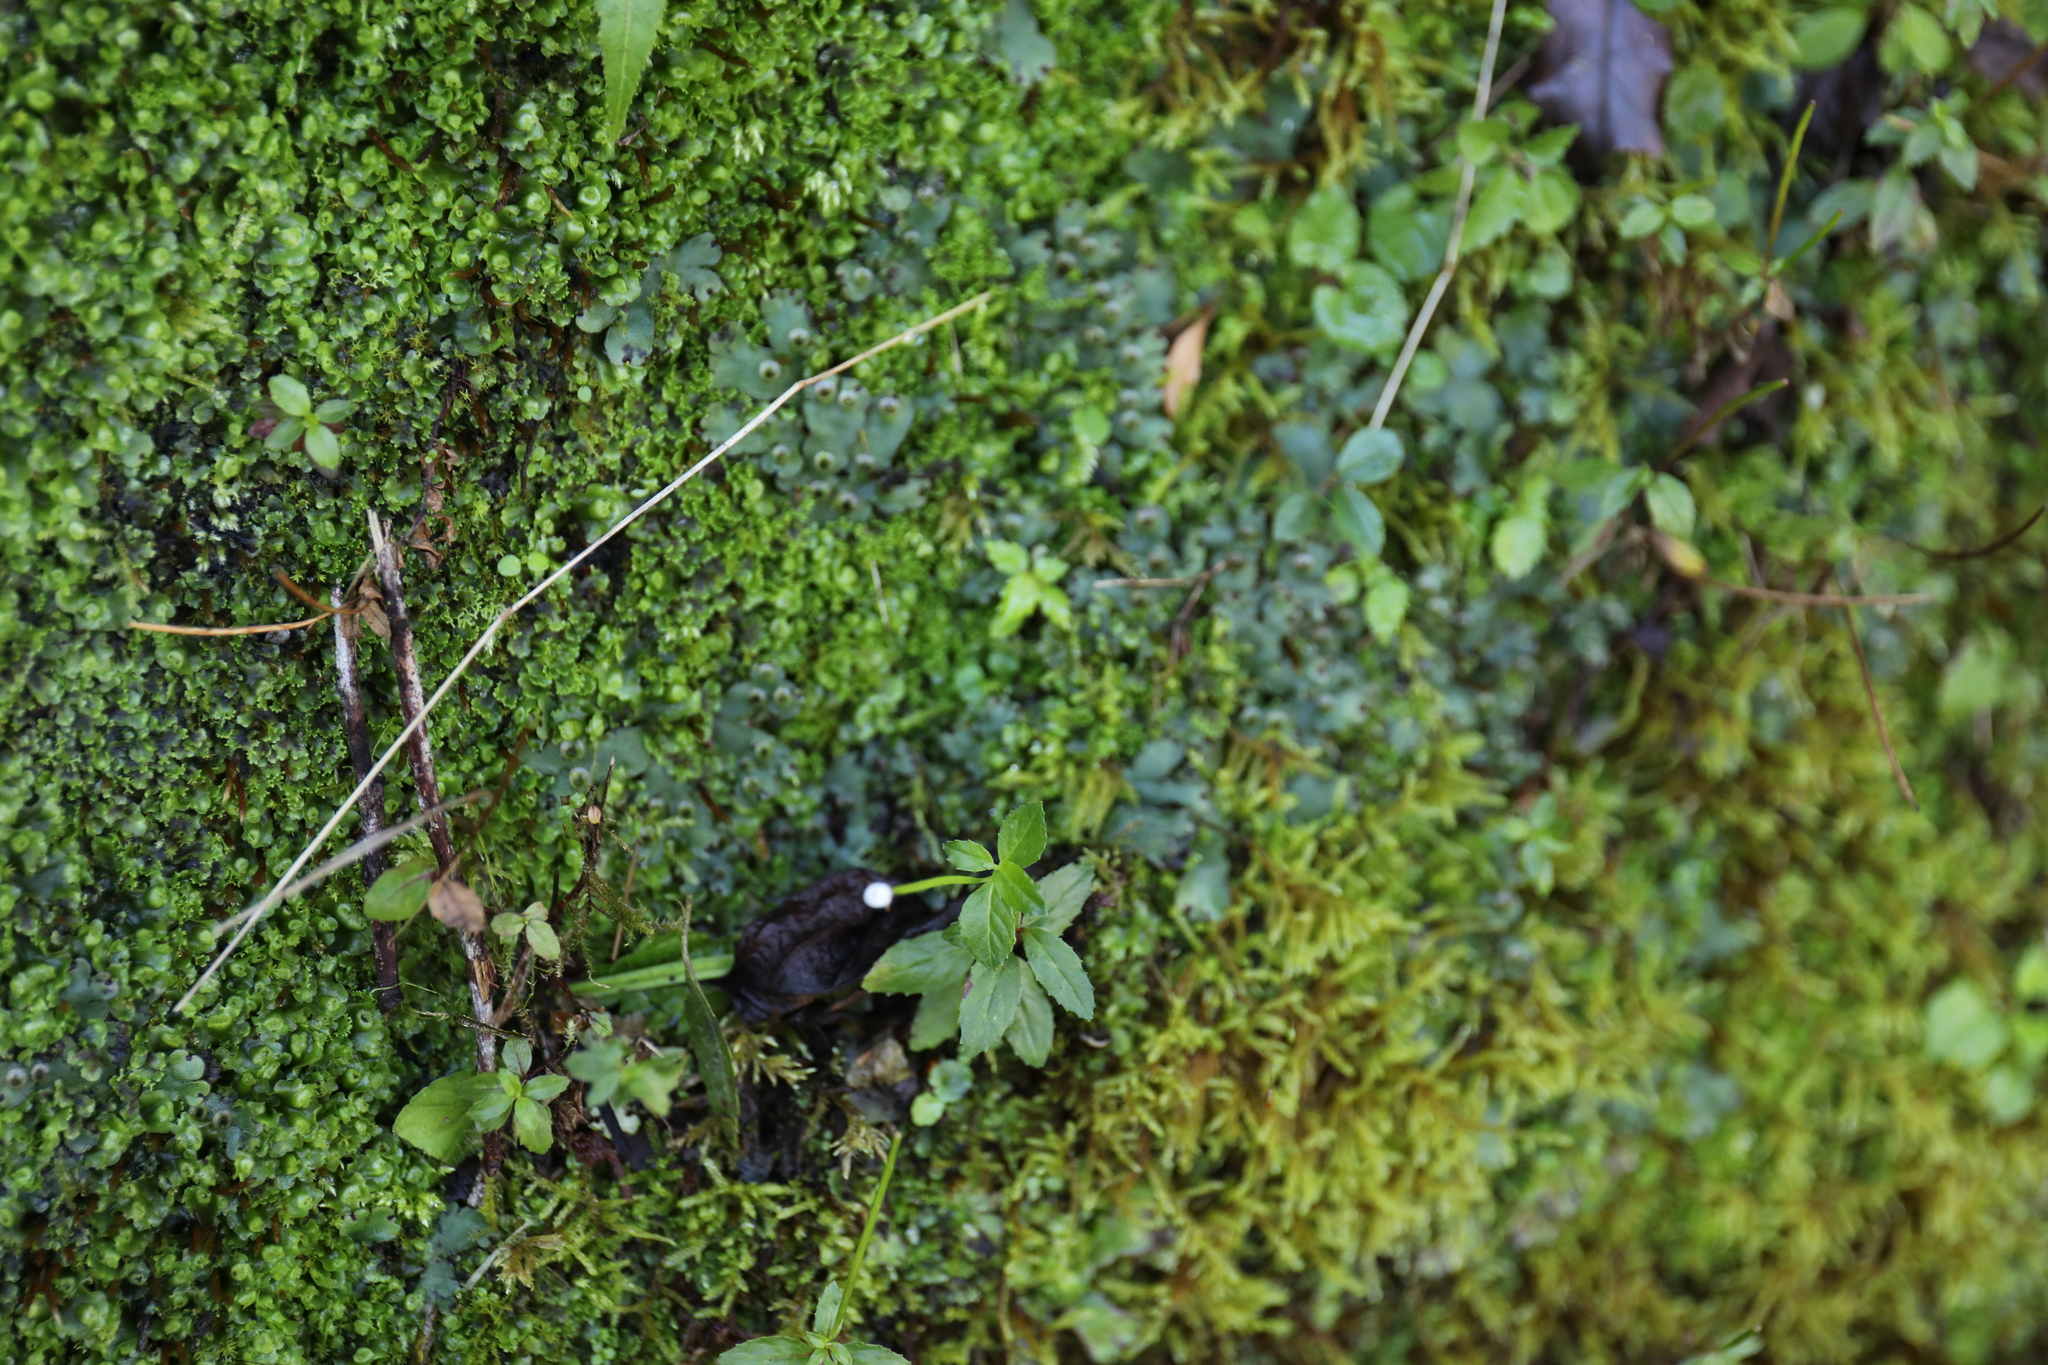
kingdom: Plantae
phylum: Tracheophyta
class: Magnoliopsida
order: Myrtales
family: Onagraceae
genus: Epilobium
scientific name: Epilobium amurense
